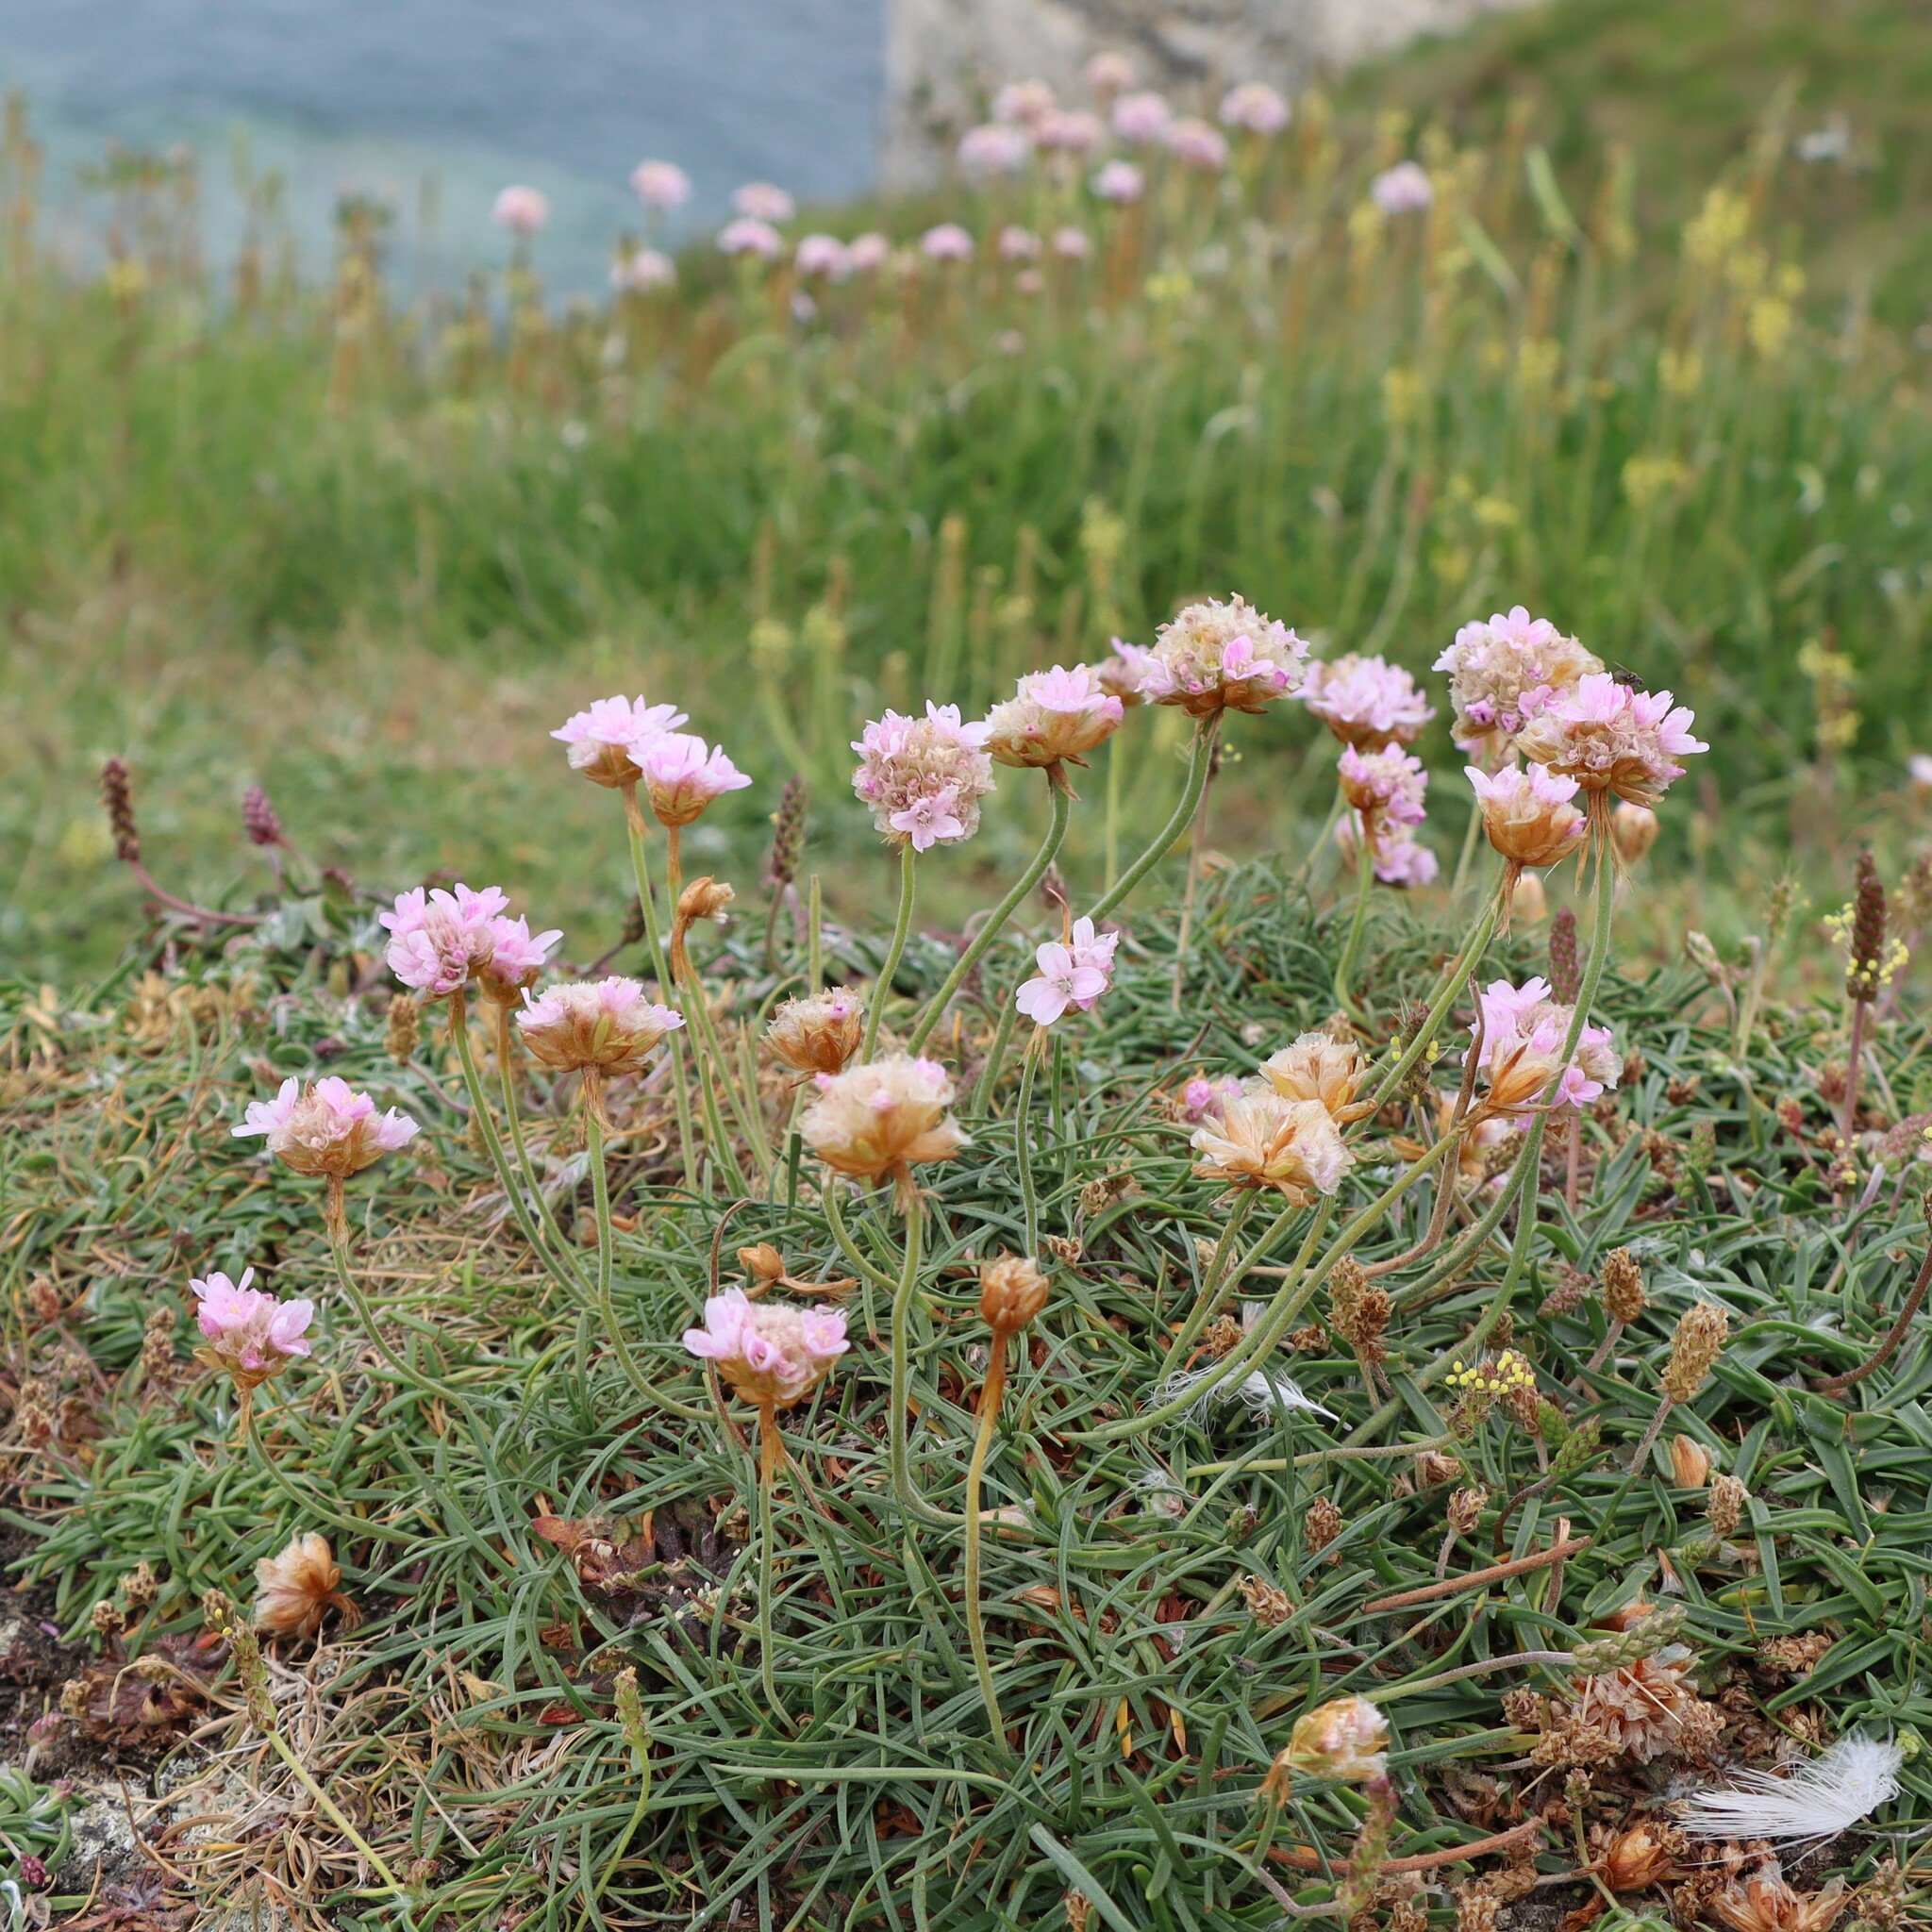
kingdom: Plantae
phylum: Tracheophyta
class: Magnoliopsida
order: Caryophyllales
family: Plumbaginaceae
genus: Armeria
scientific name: Armeria maritima
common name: Thrift
